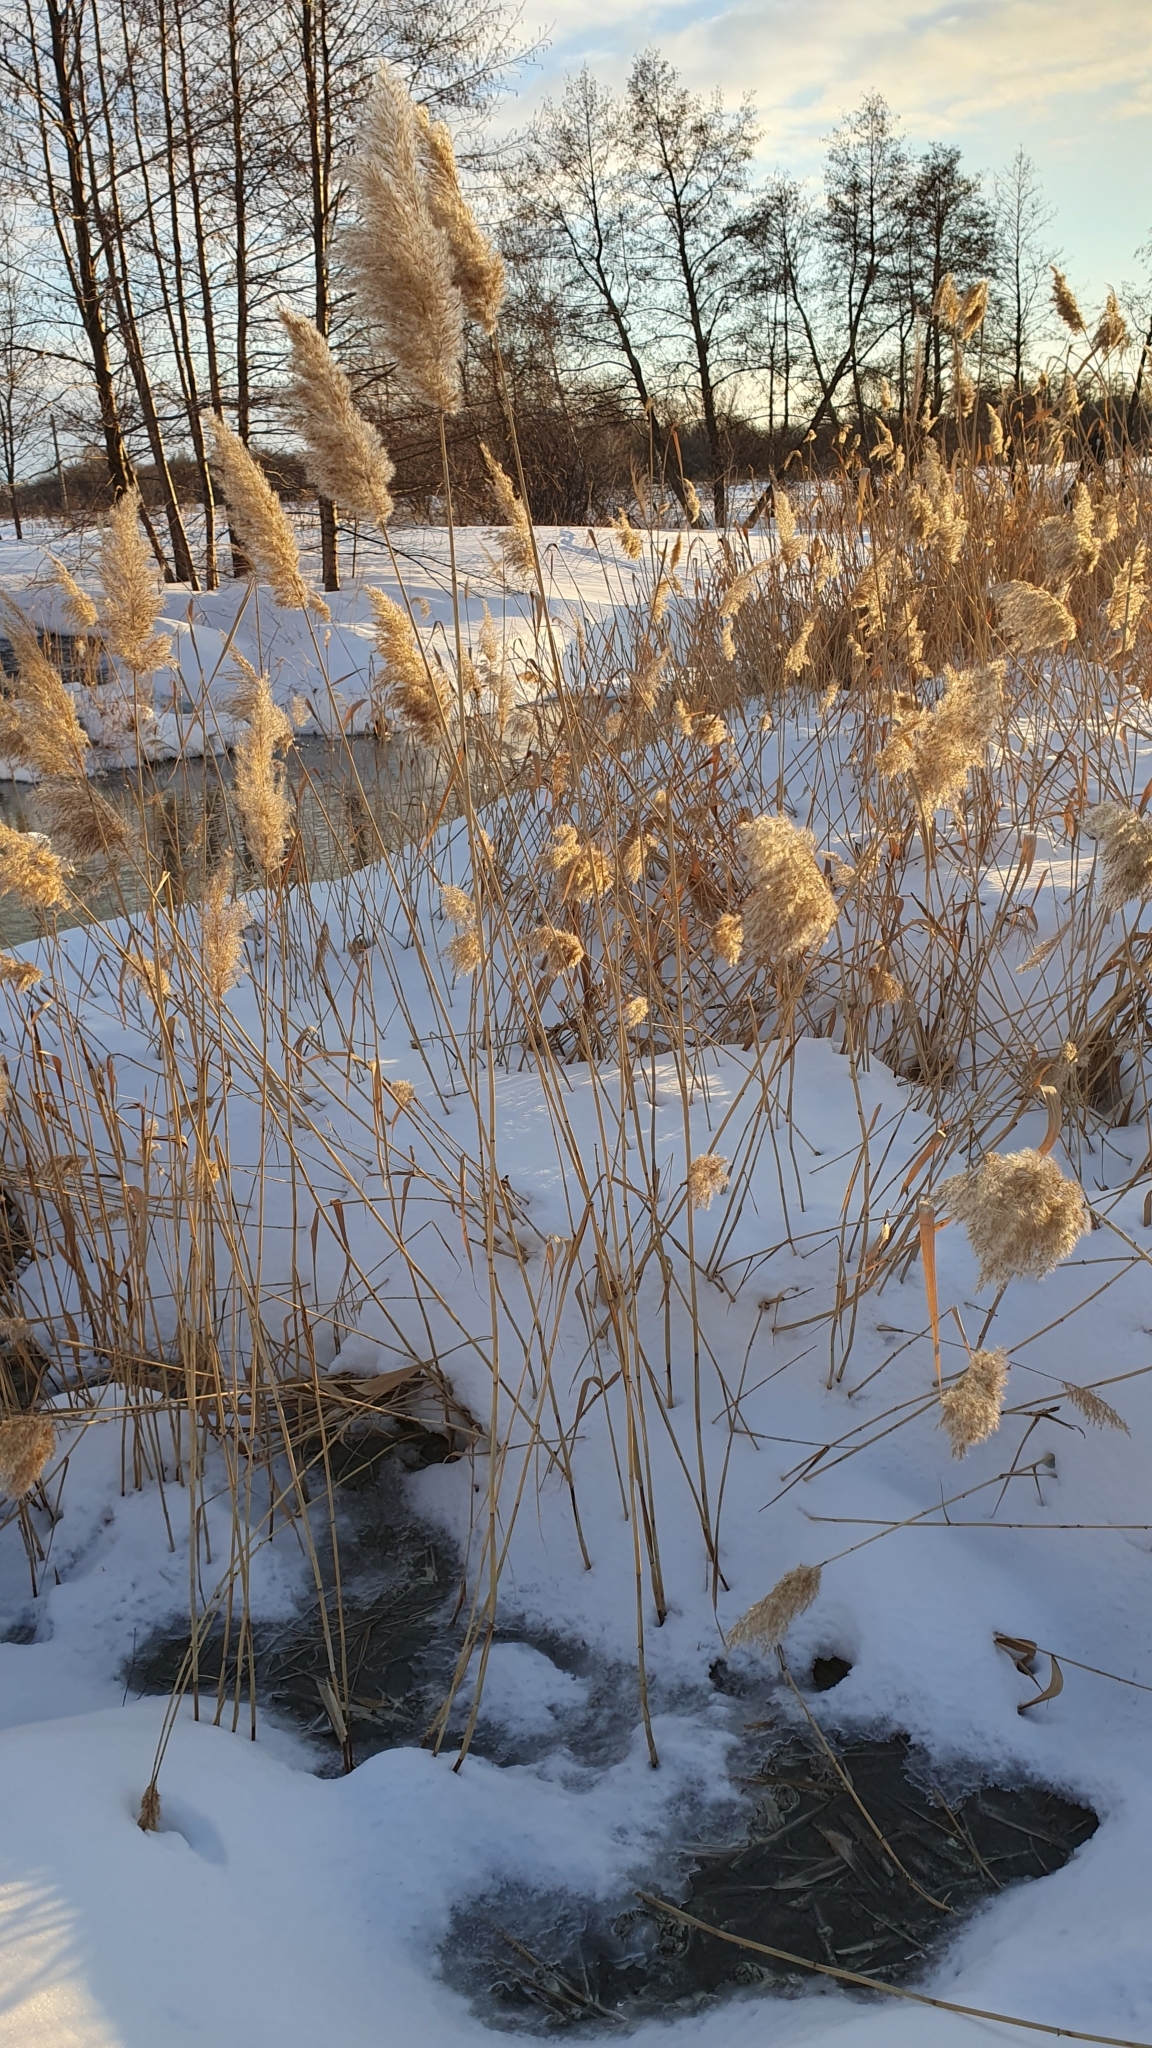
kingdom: Plantae
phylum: Tracheophyta
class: Liliopsida
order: Poales
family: Poaceae
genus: Phragmites
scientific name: Phragmites australis
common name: Common reed
